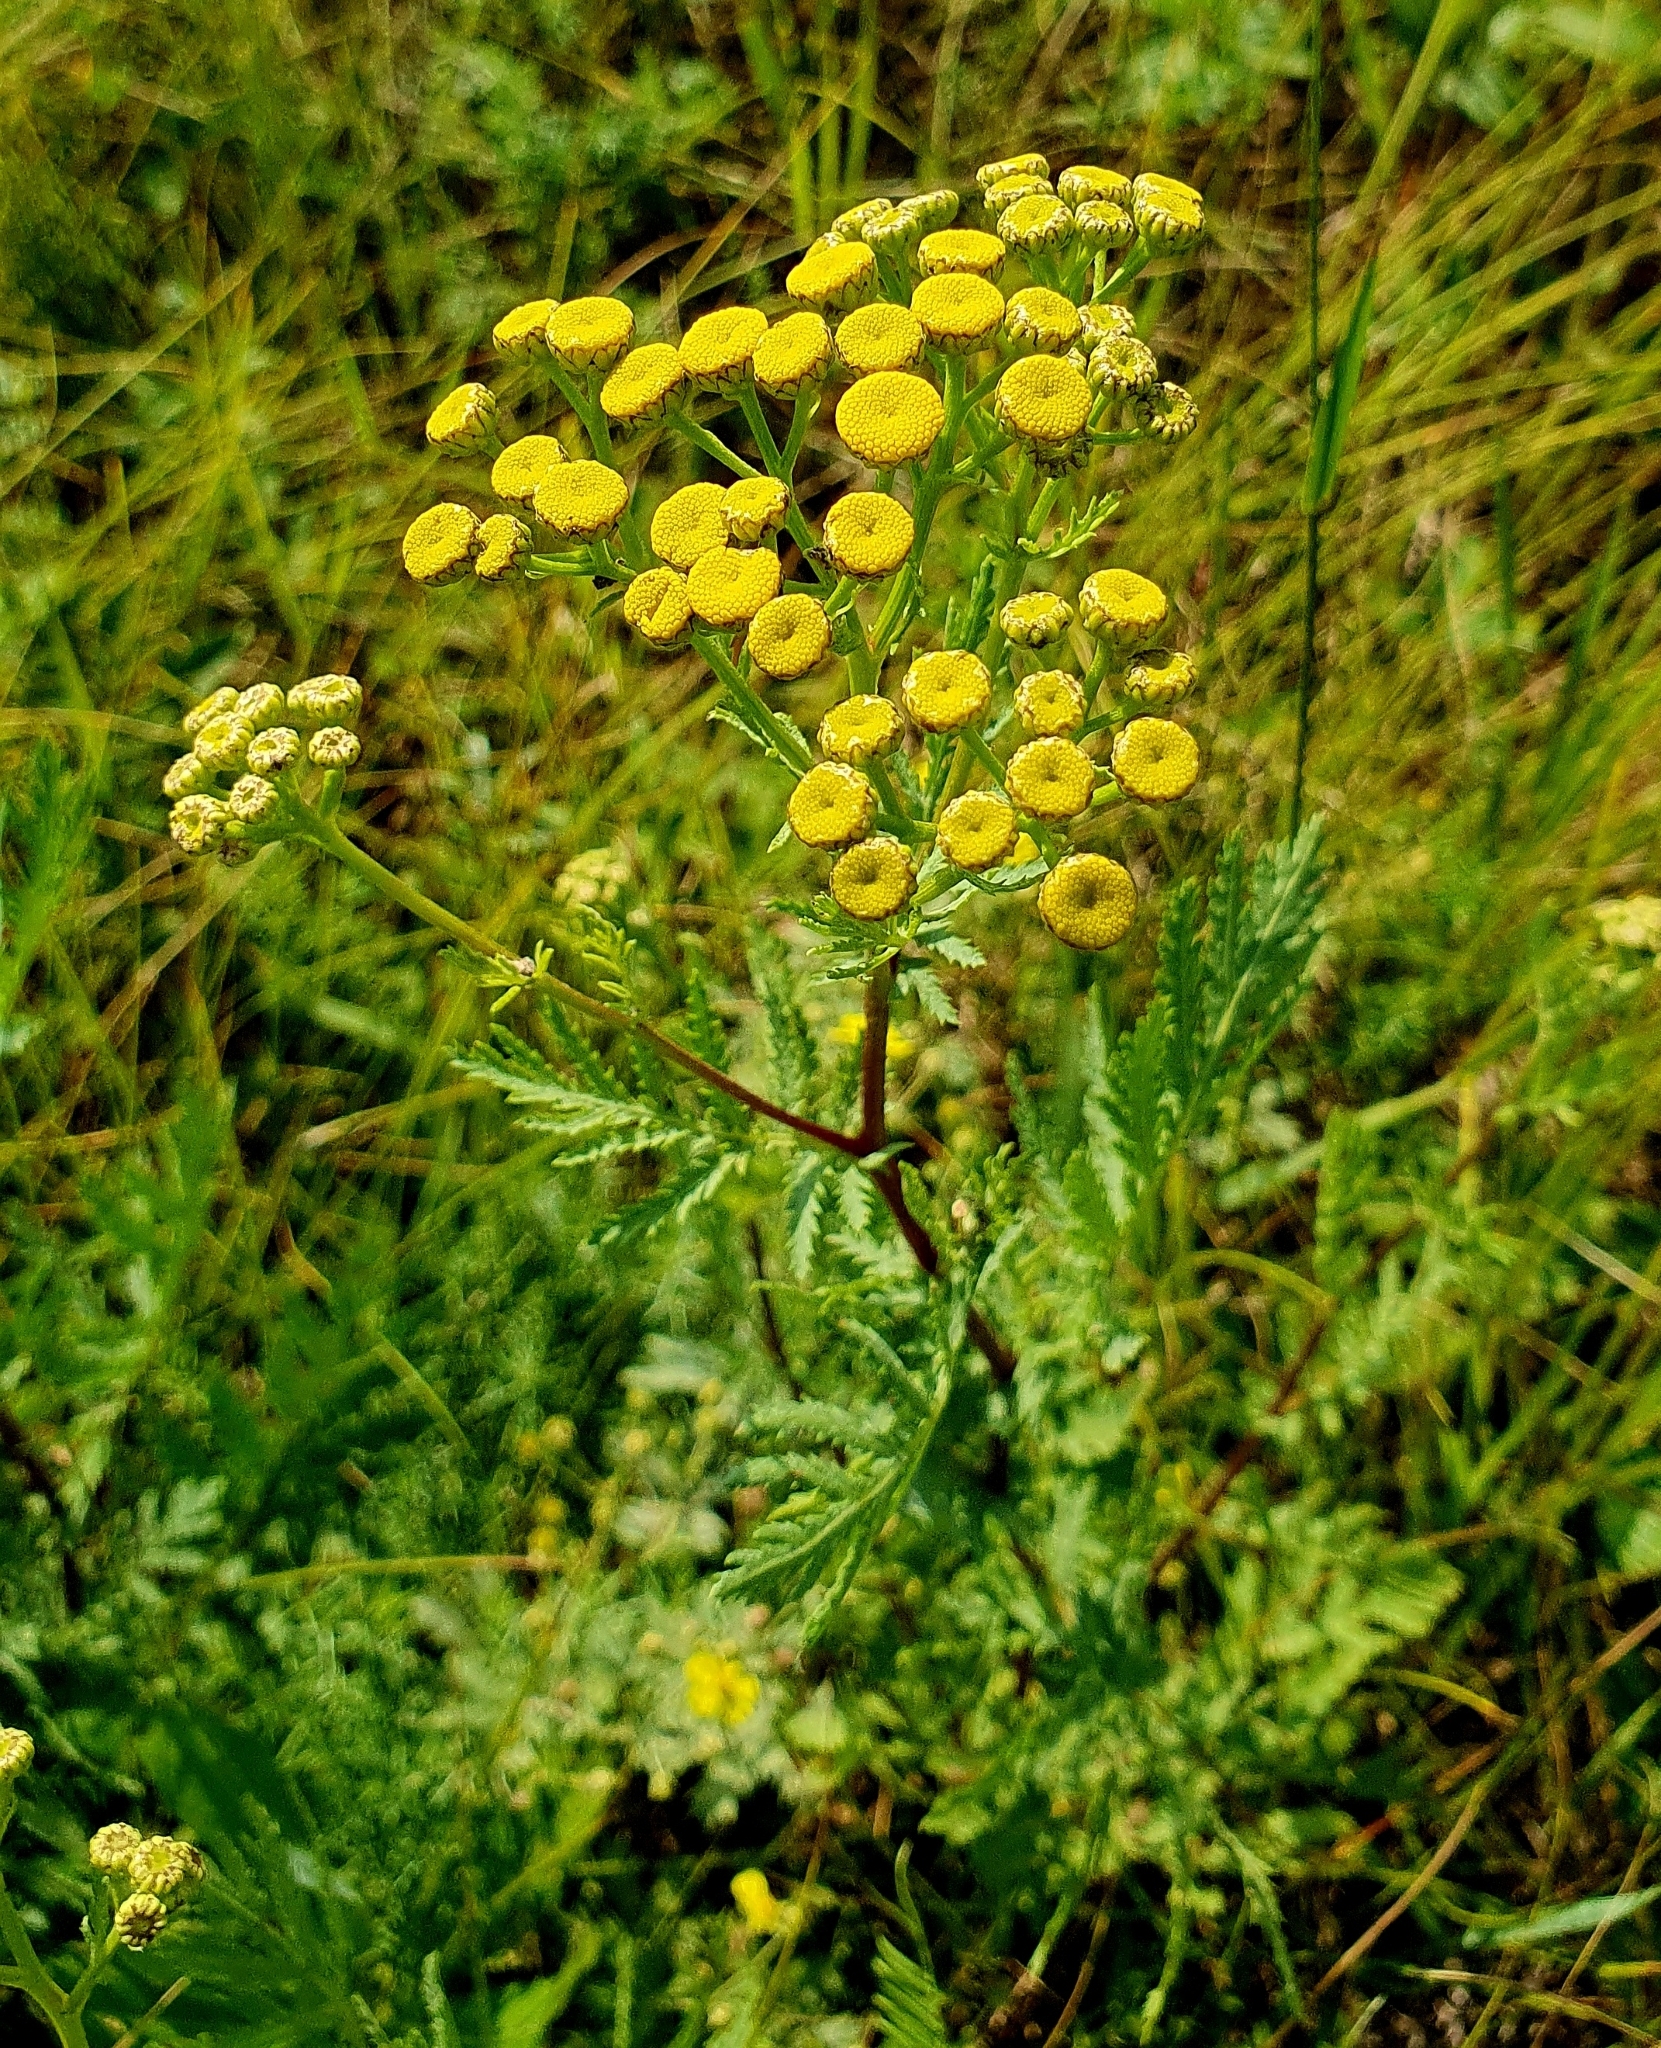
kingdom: Plantae
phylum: Tracheophyta
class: Magnoliopsida
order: Asterales
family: Asteraceae
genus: Tanacetum
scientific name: Tanacetum vulgare
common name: Common tansy
